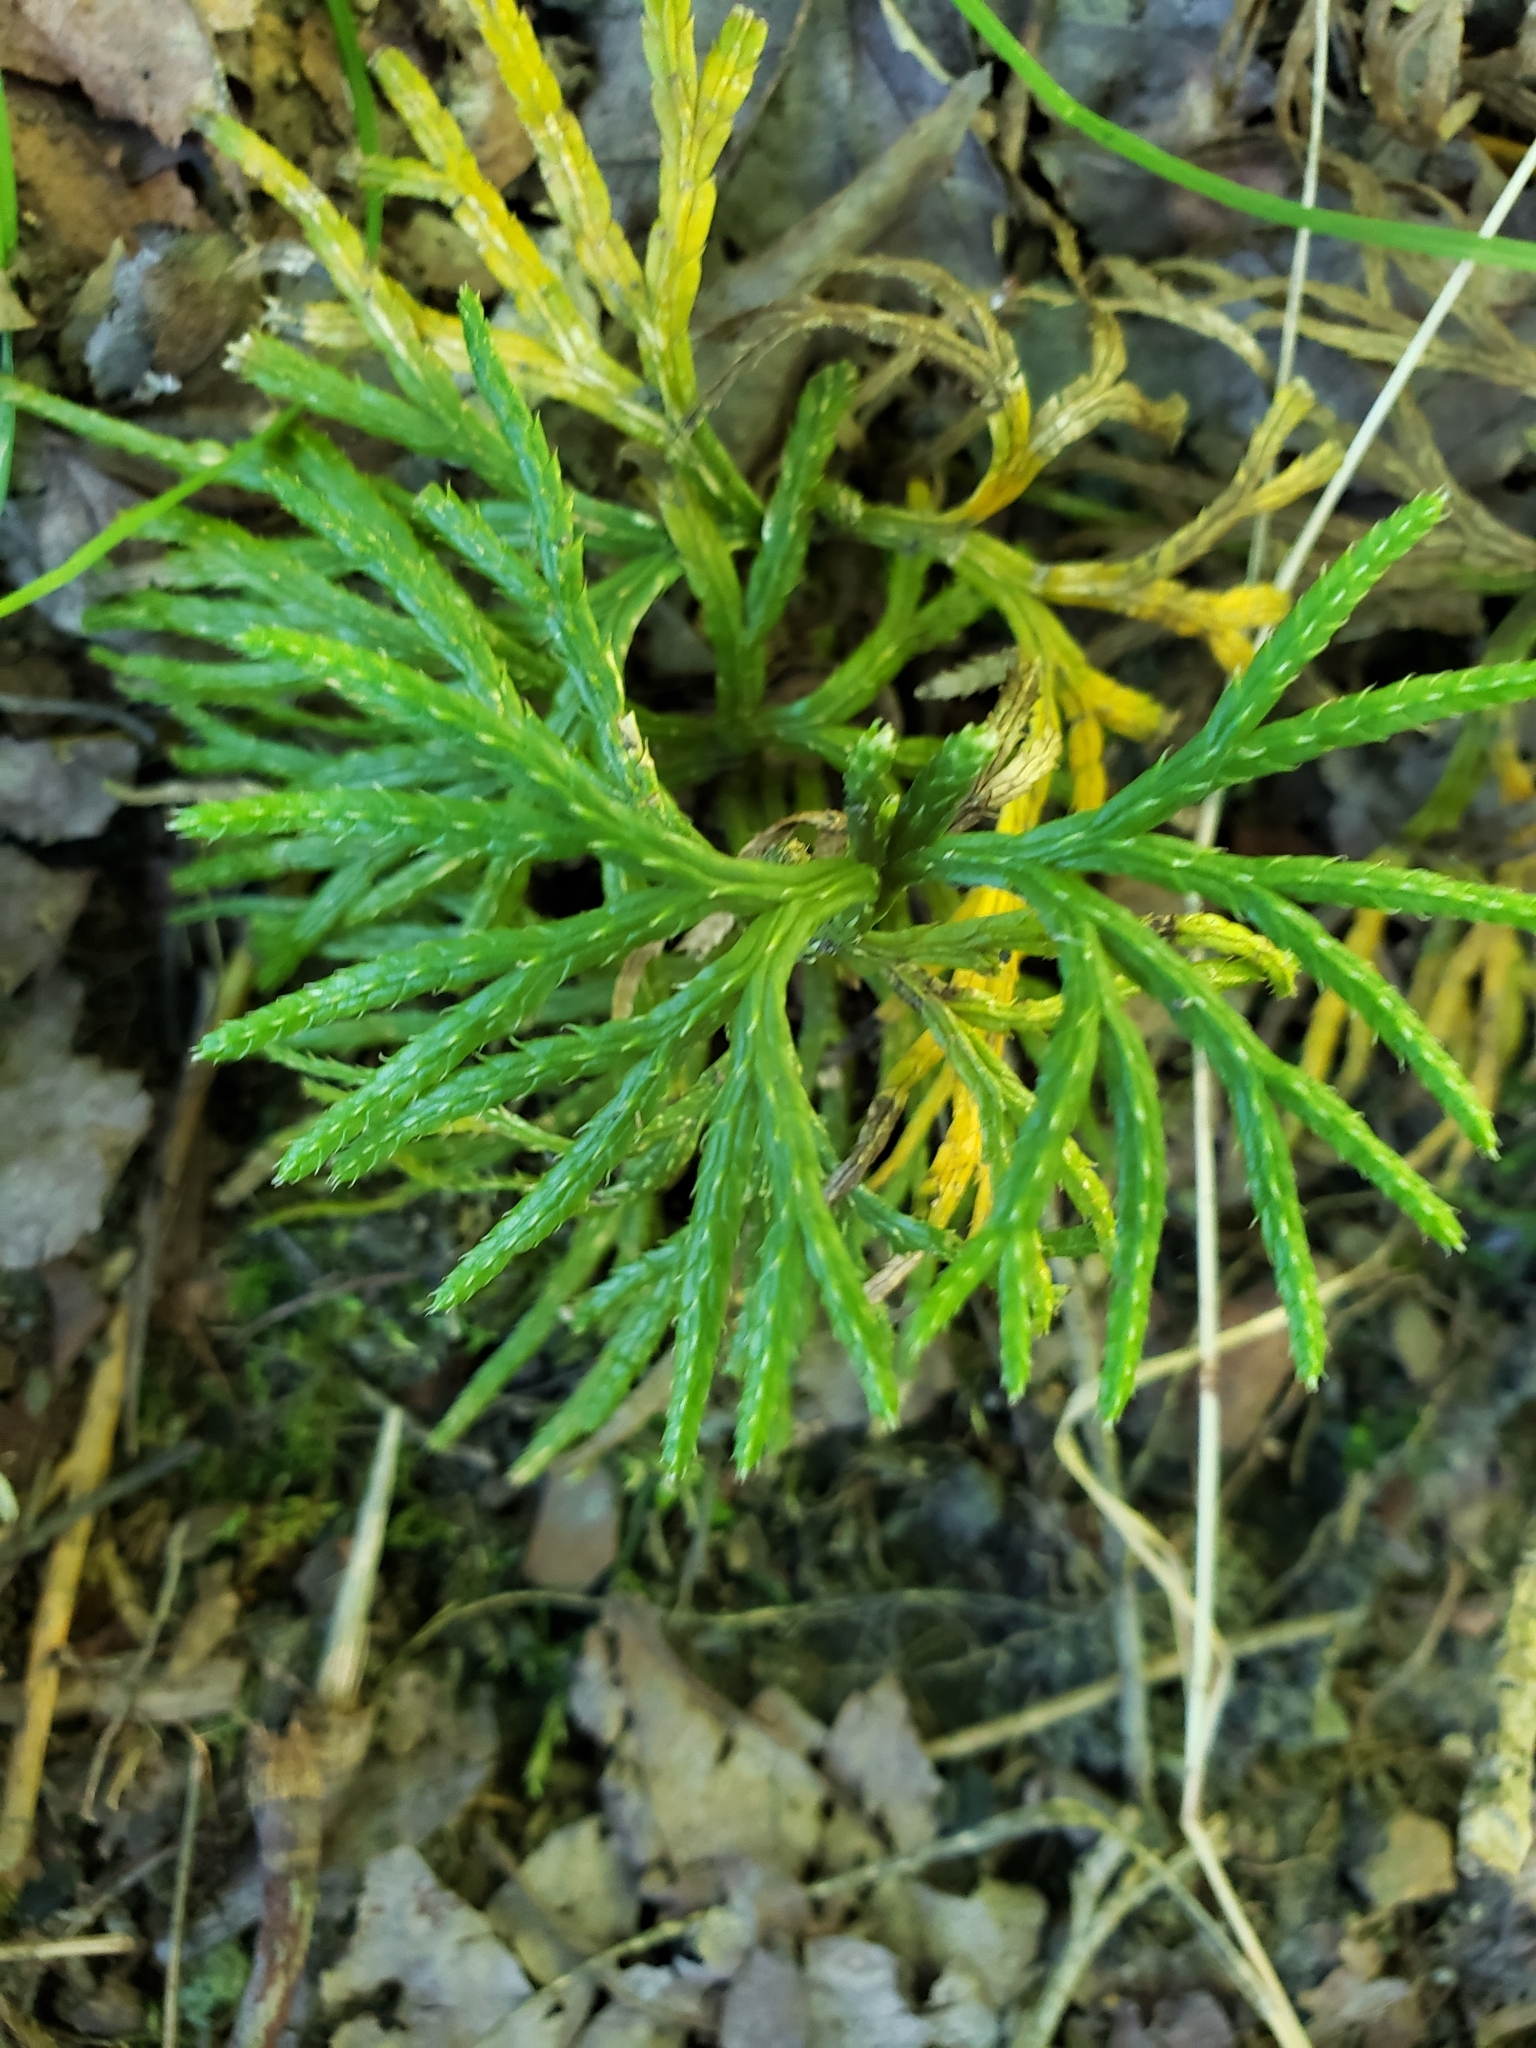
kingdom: Plantae
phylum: Tracheophyta
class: Lycopodiopsida
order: Lycopodiales
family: Lycopodiaceae
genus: Diphasiastrum
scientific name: Diphasiastrum digitatum
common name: Southern running-pine
